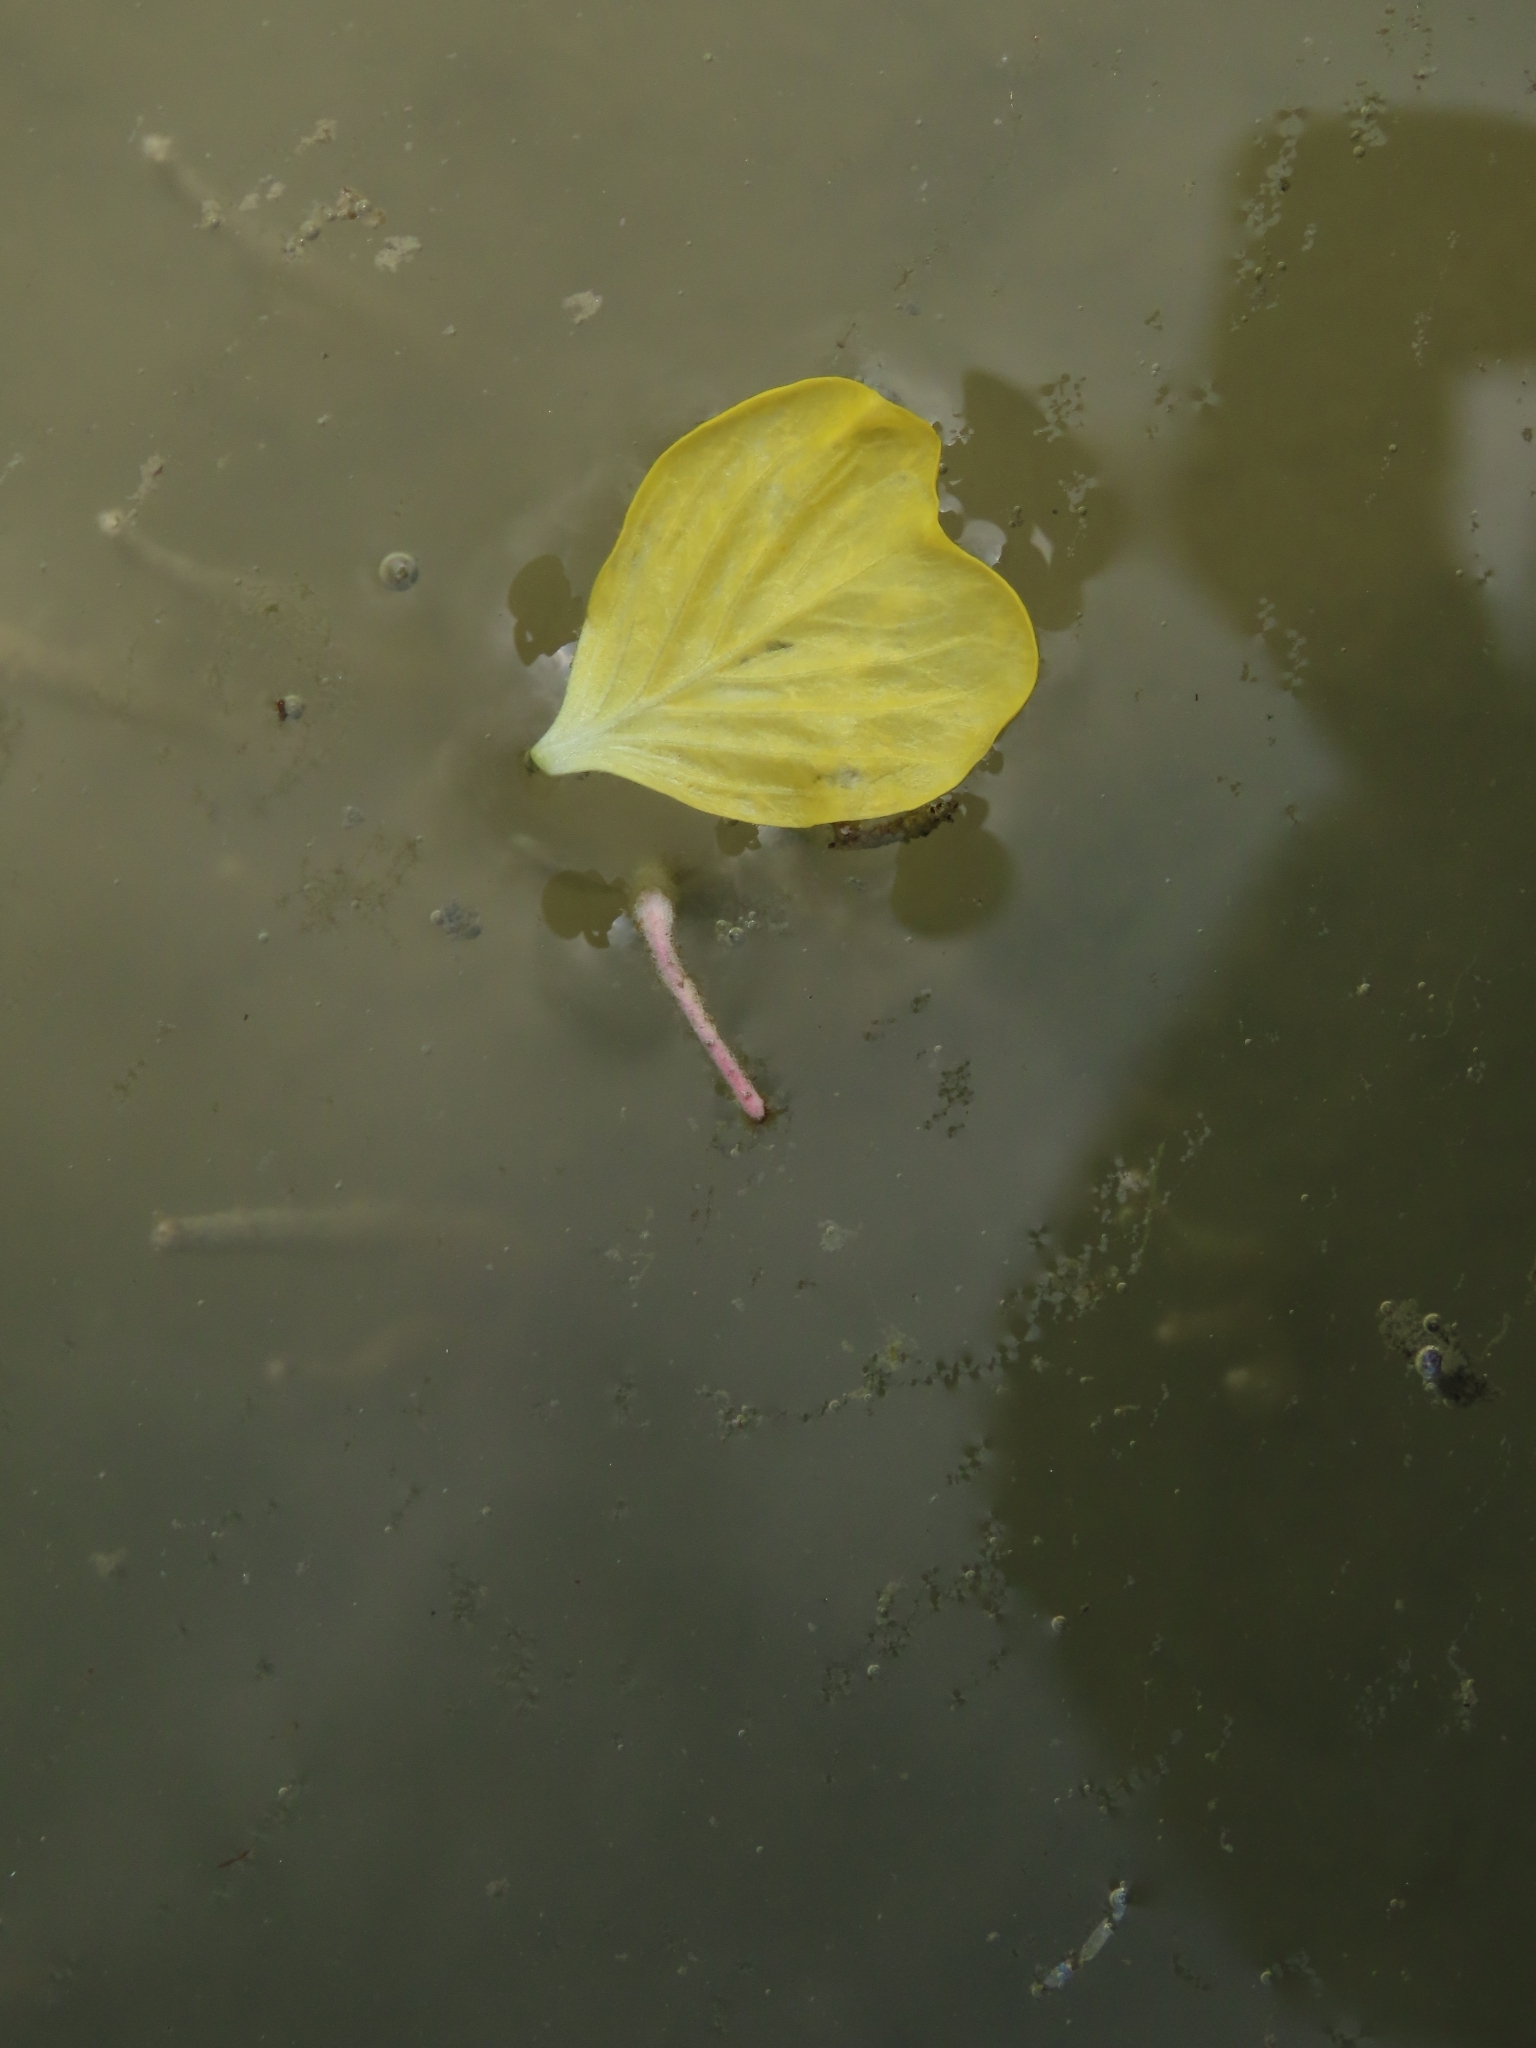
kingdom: Plantae
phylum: Tracheophyta
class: Magnoliopsida
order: Myrtales
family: Onagraceae
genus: Ludwigia
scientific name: Ludwigia erecta
